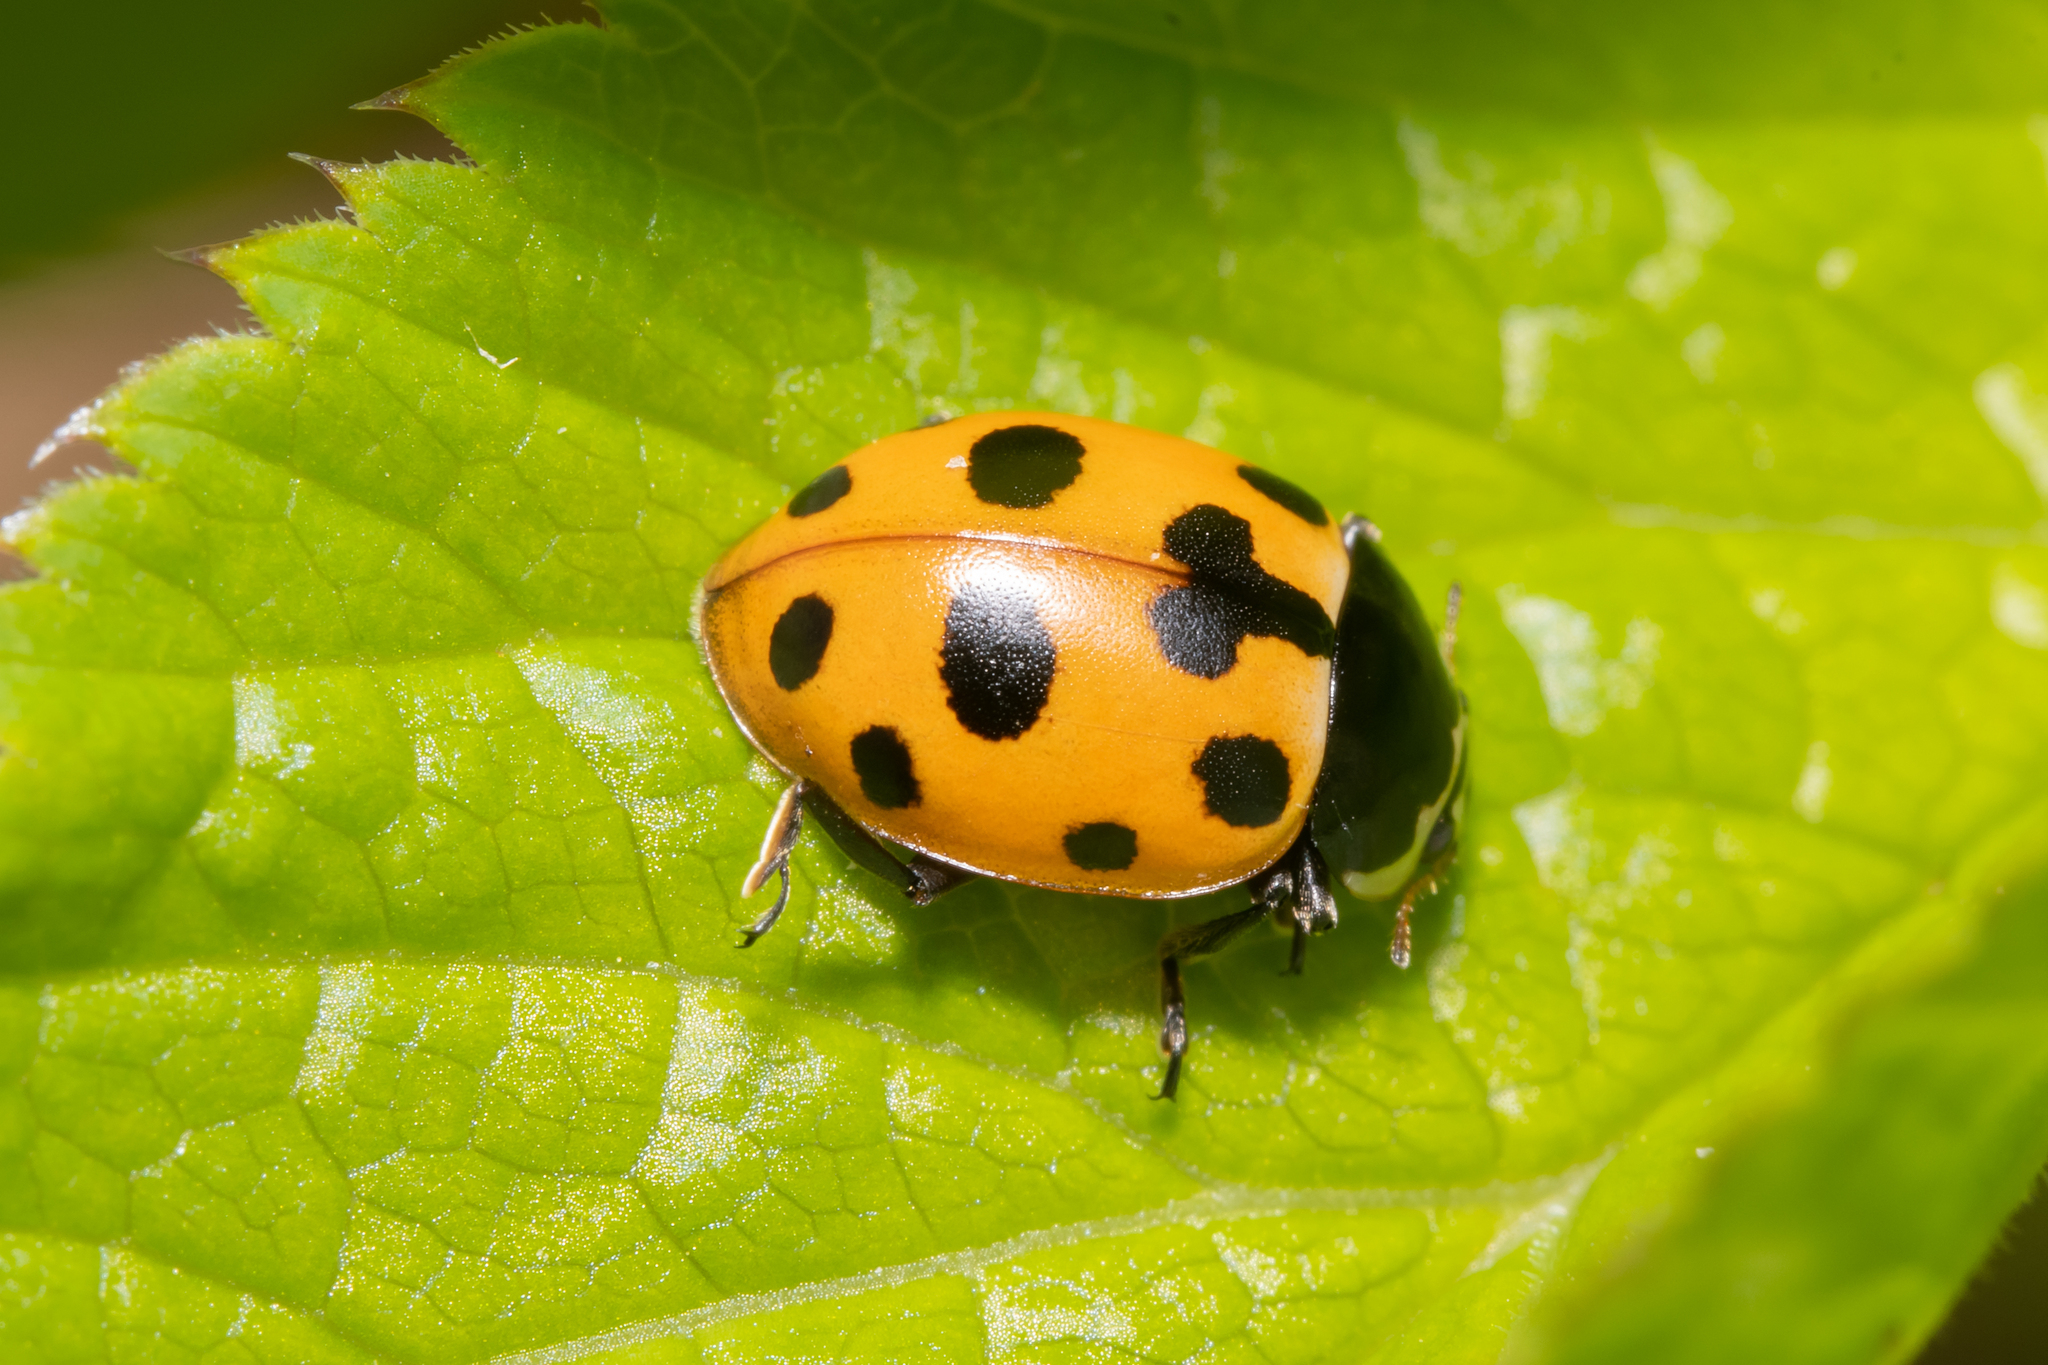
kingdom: Animalia
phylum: Arthropoda
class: Insecta
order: Coleoptera
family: Coccinellidae
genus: Ceratomegilla
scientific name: Ceratomegilla notata
